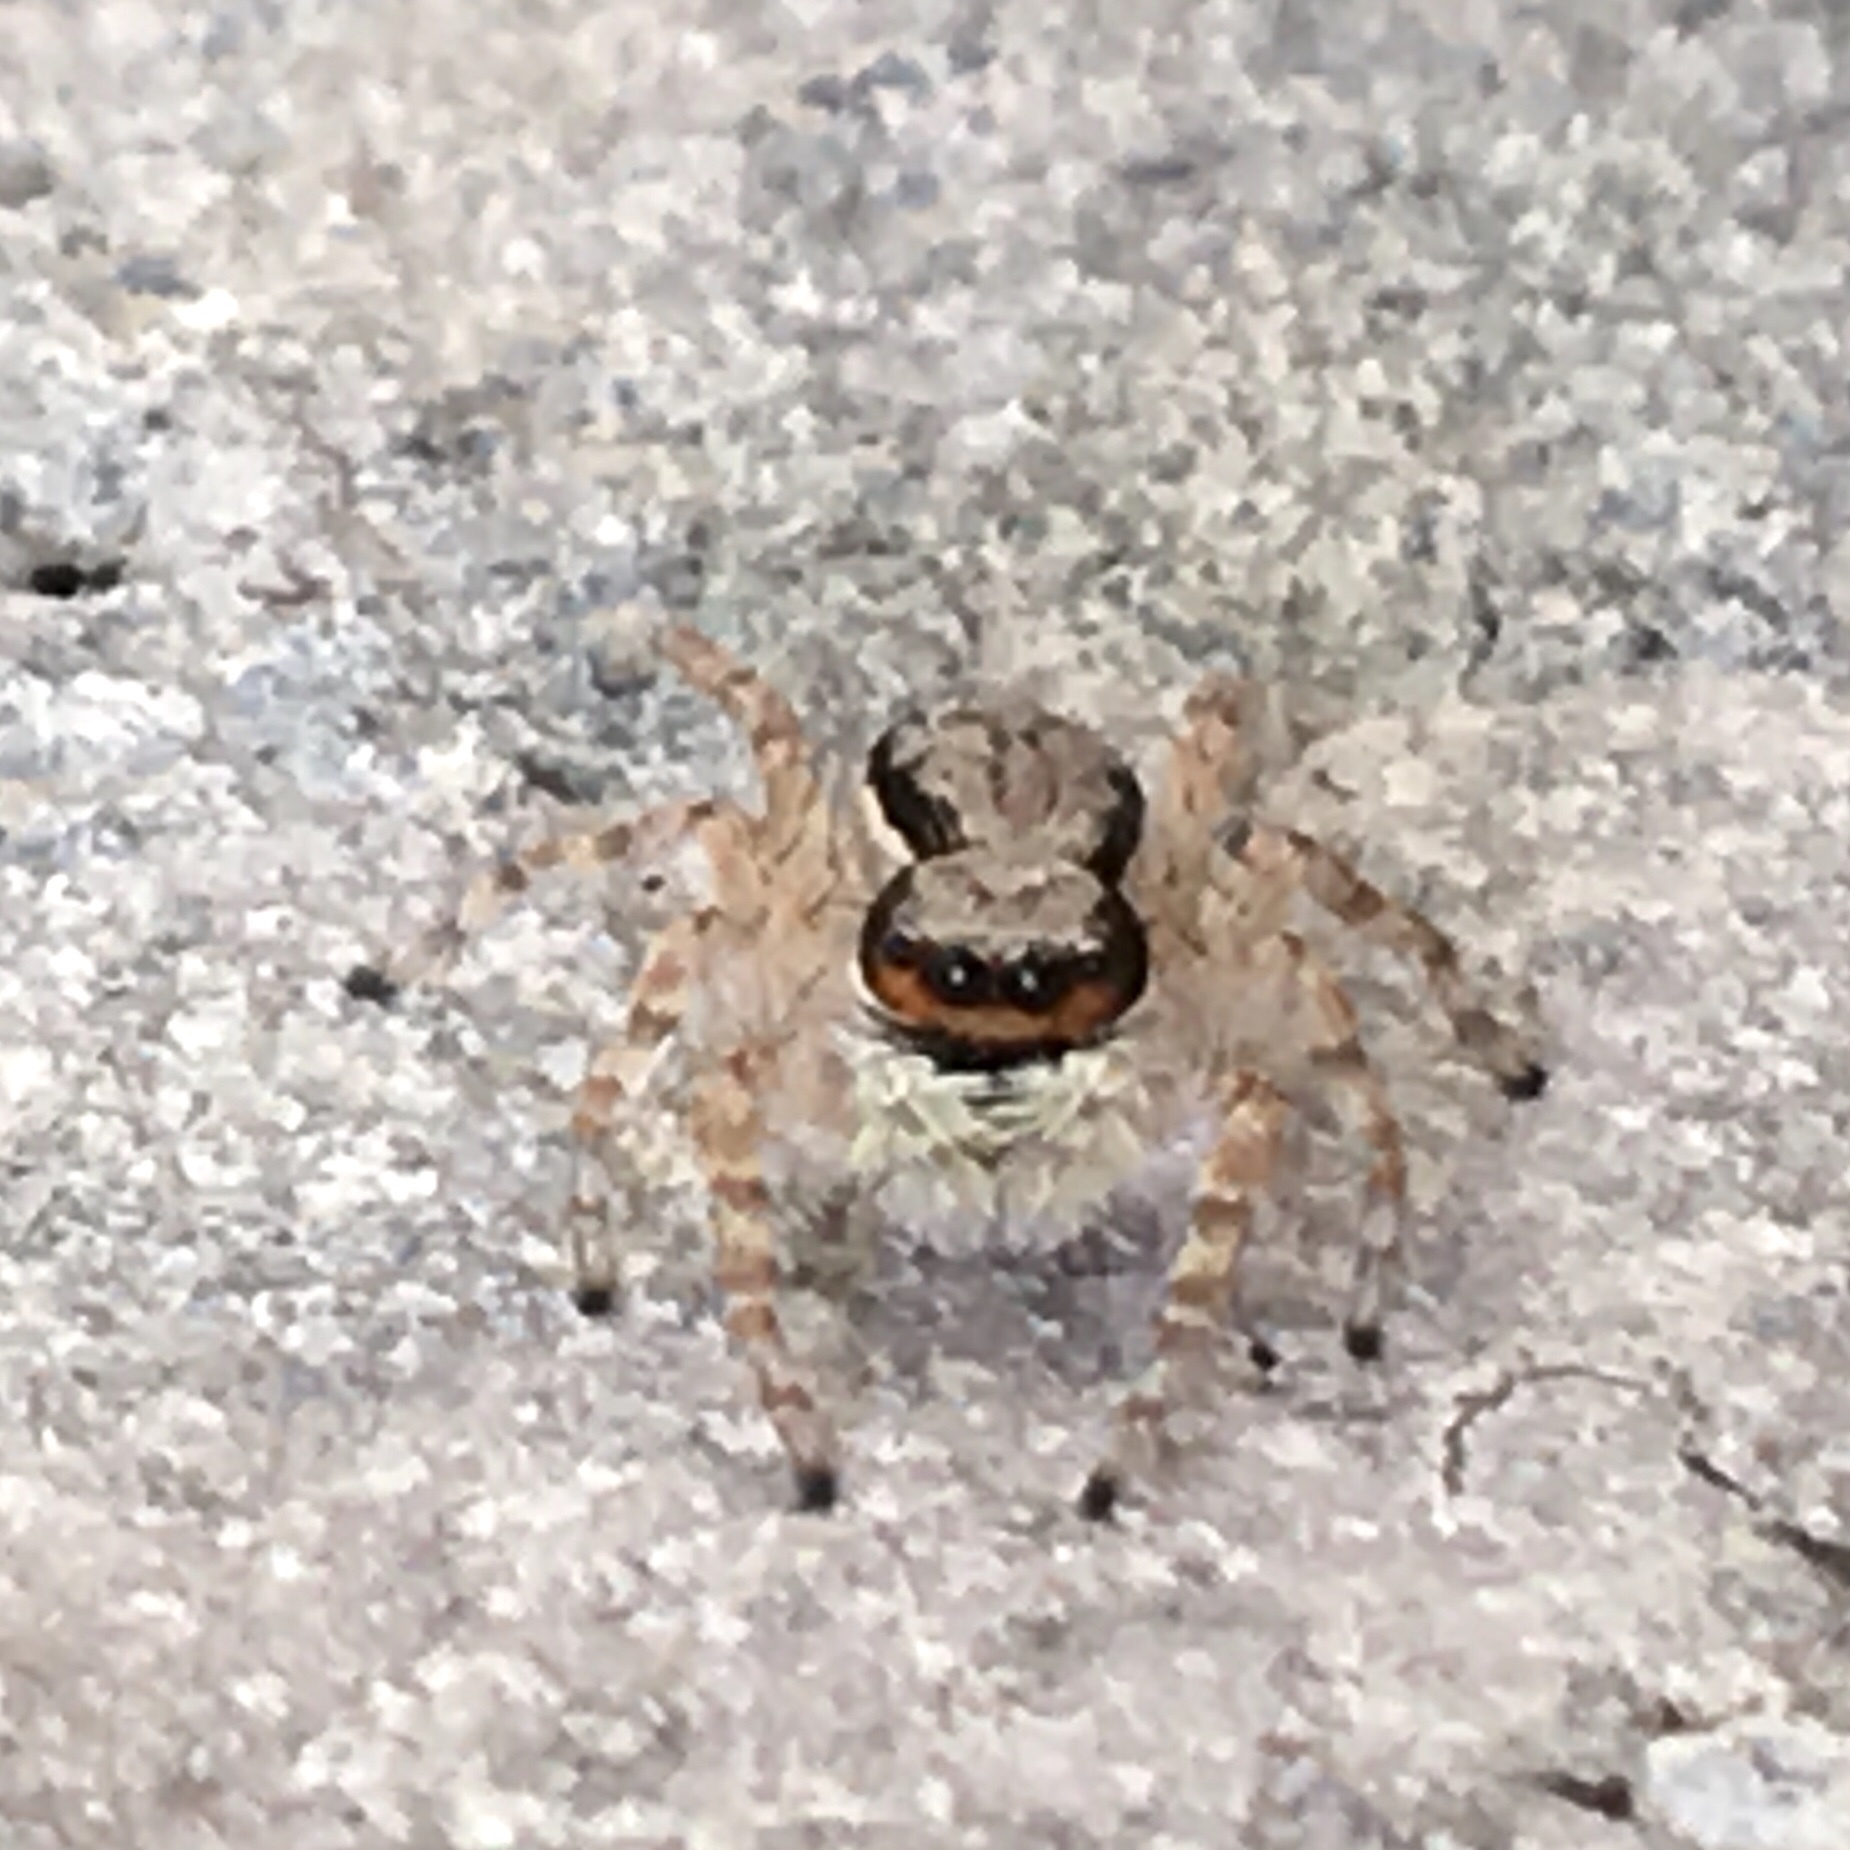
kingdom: Animalia
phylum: Arthropoda
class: Arachnida
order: Araneae
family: Salticidae
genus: Menemerus
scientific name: Menemerus bivittatus
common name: Gray wall jumper
